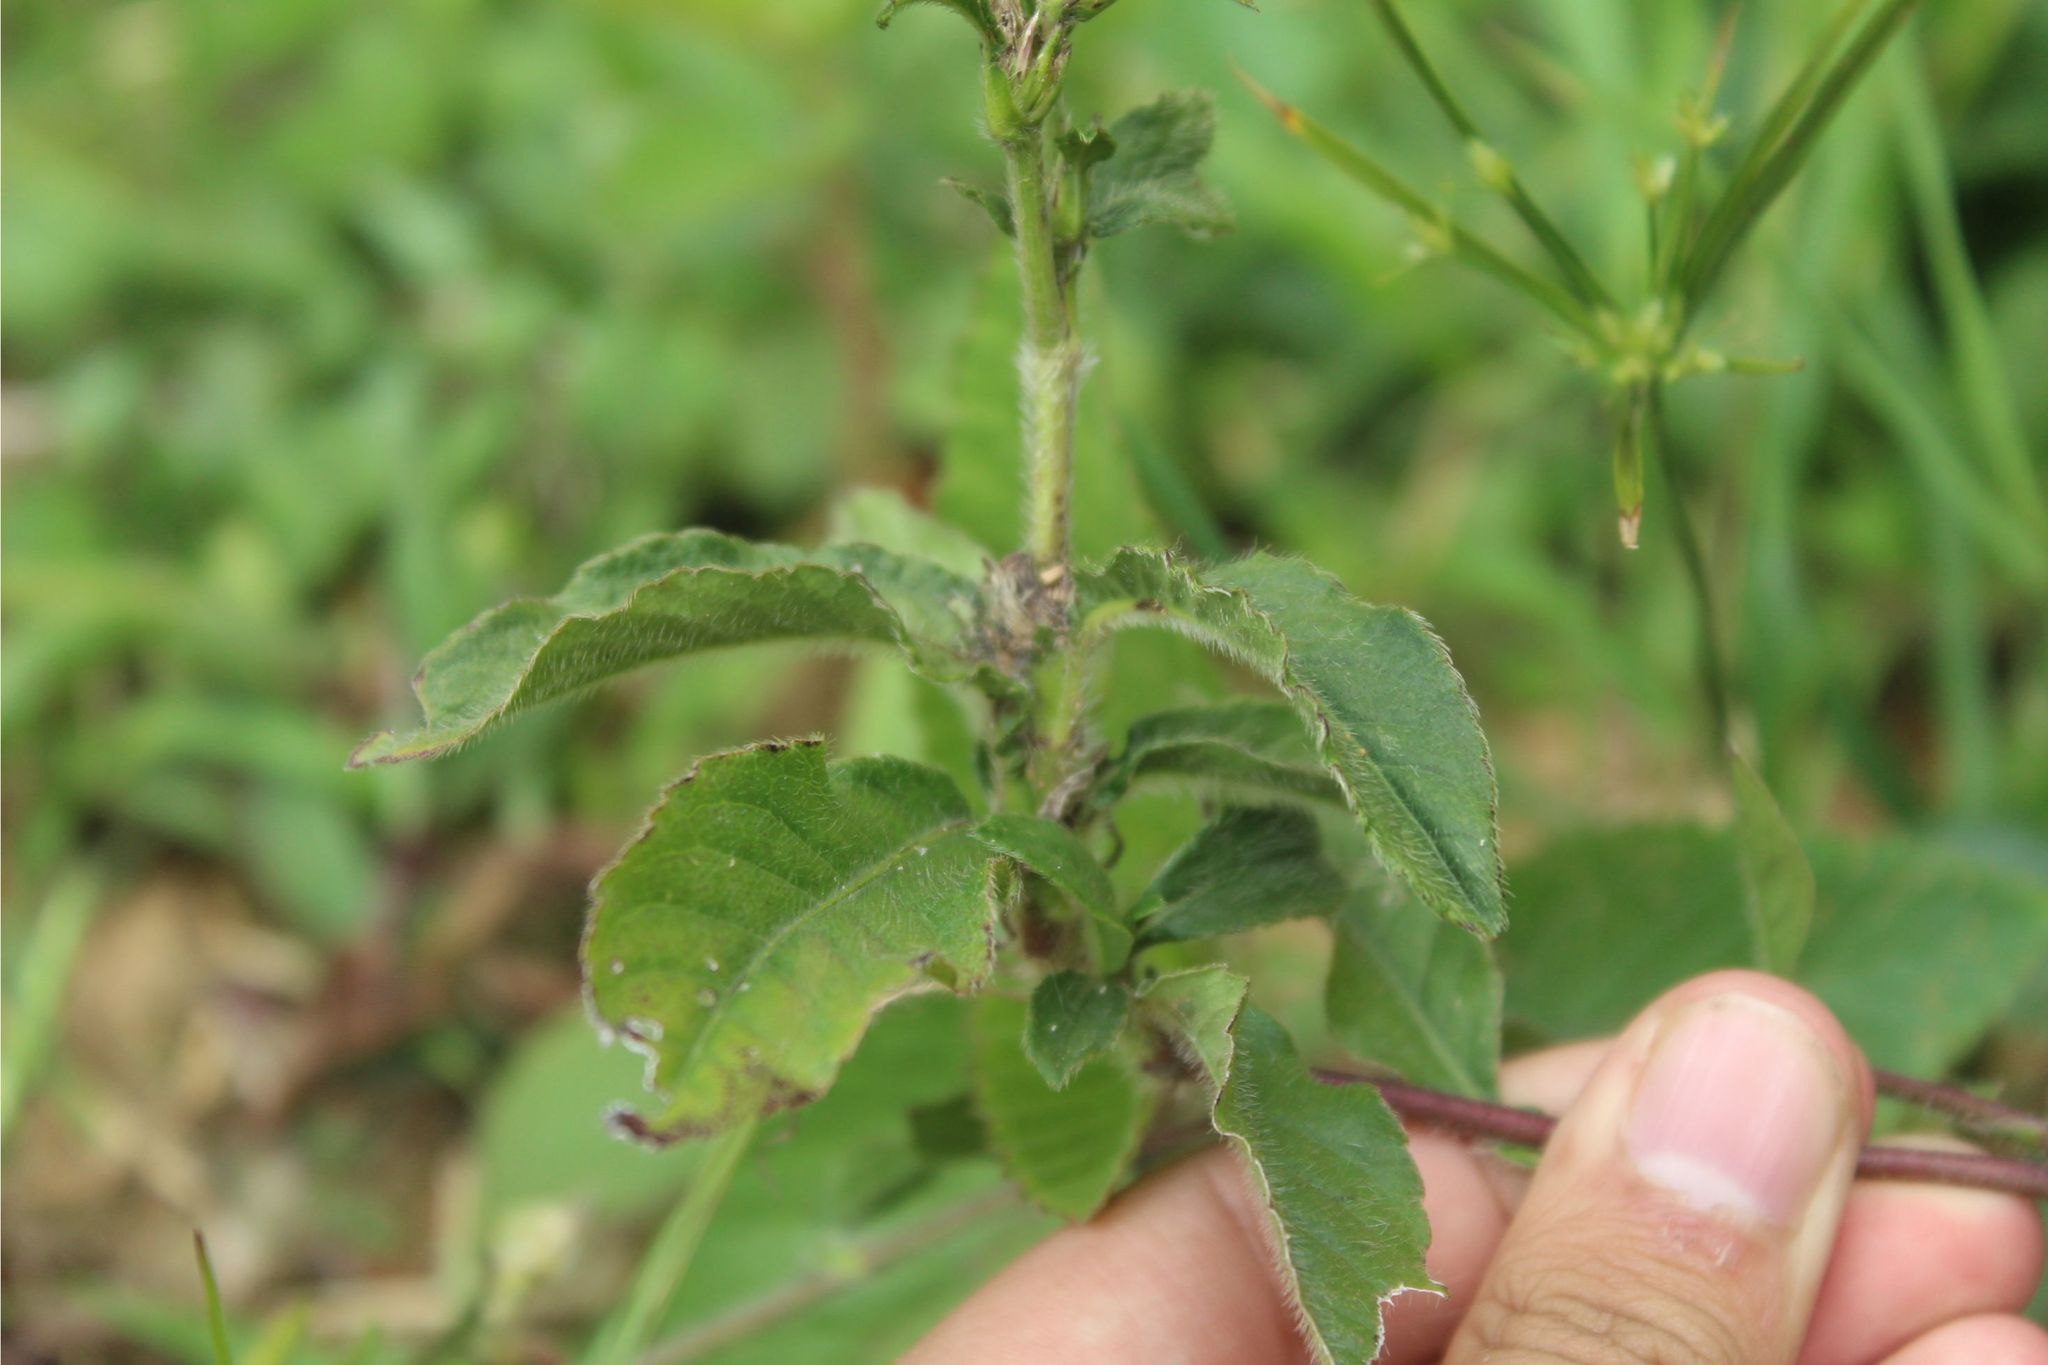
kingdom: Plantae
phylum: Tracheophyta
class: Magnoliopsida
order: Asterales
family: Asteraceae
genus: Pseudelephantopus
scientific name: Pseudelephantopus spiralis
